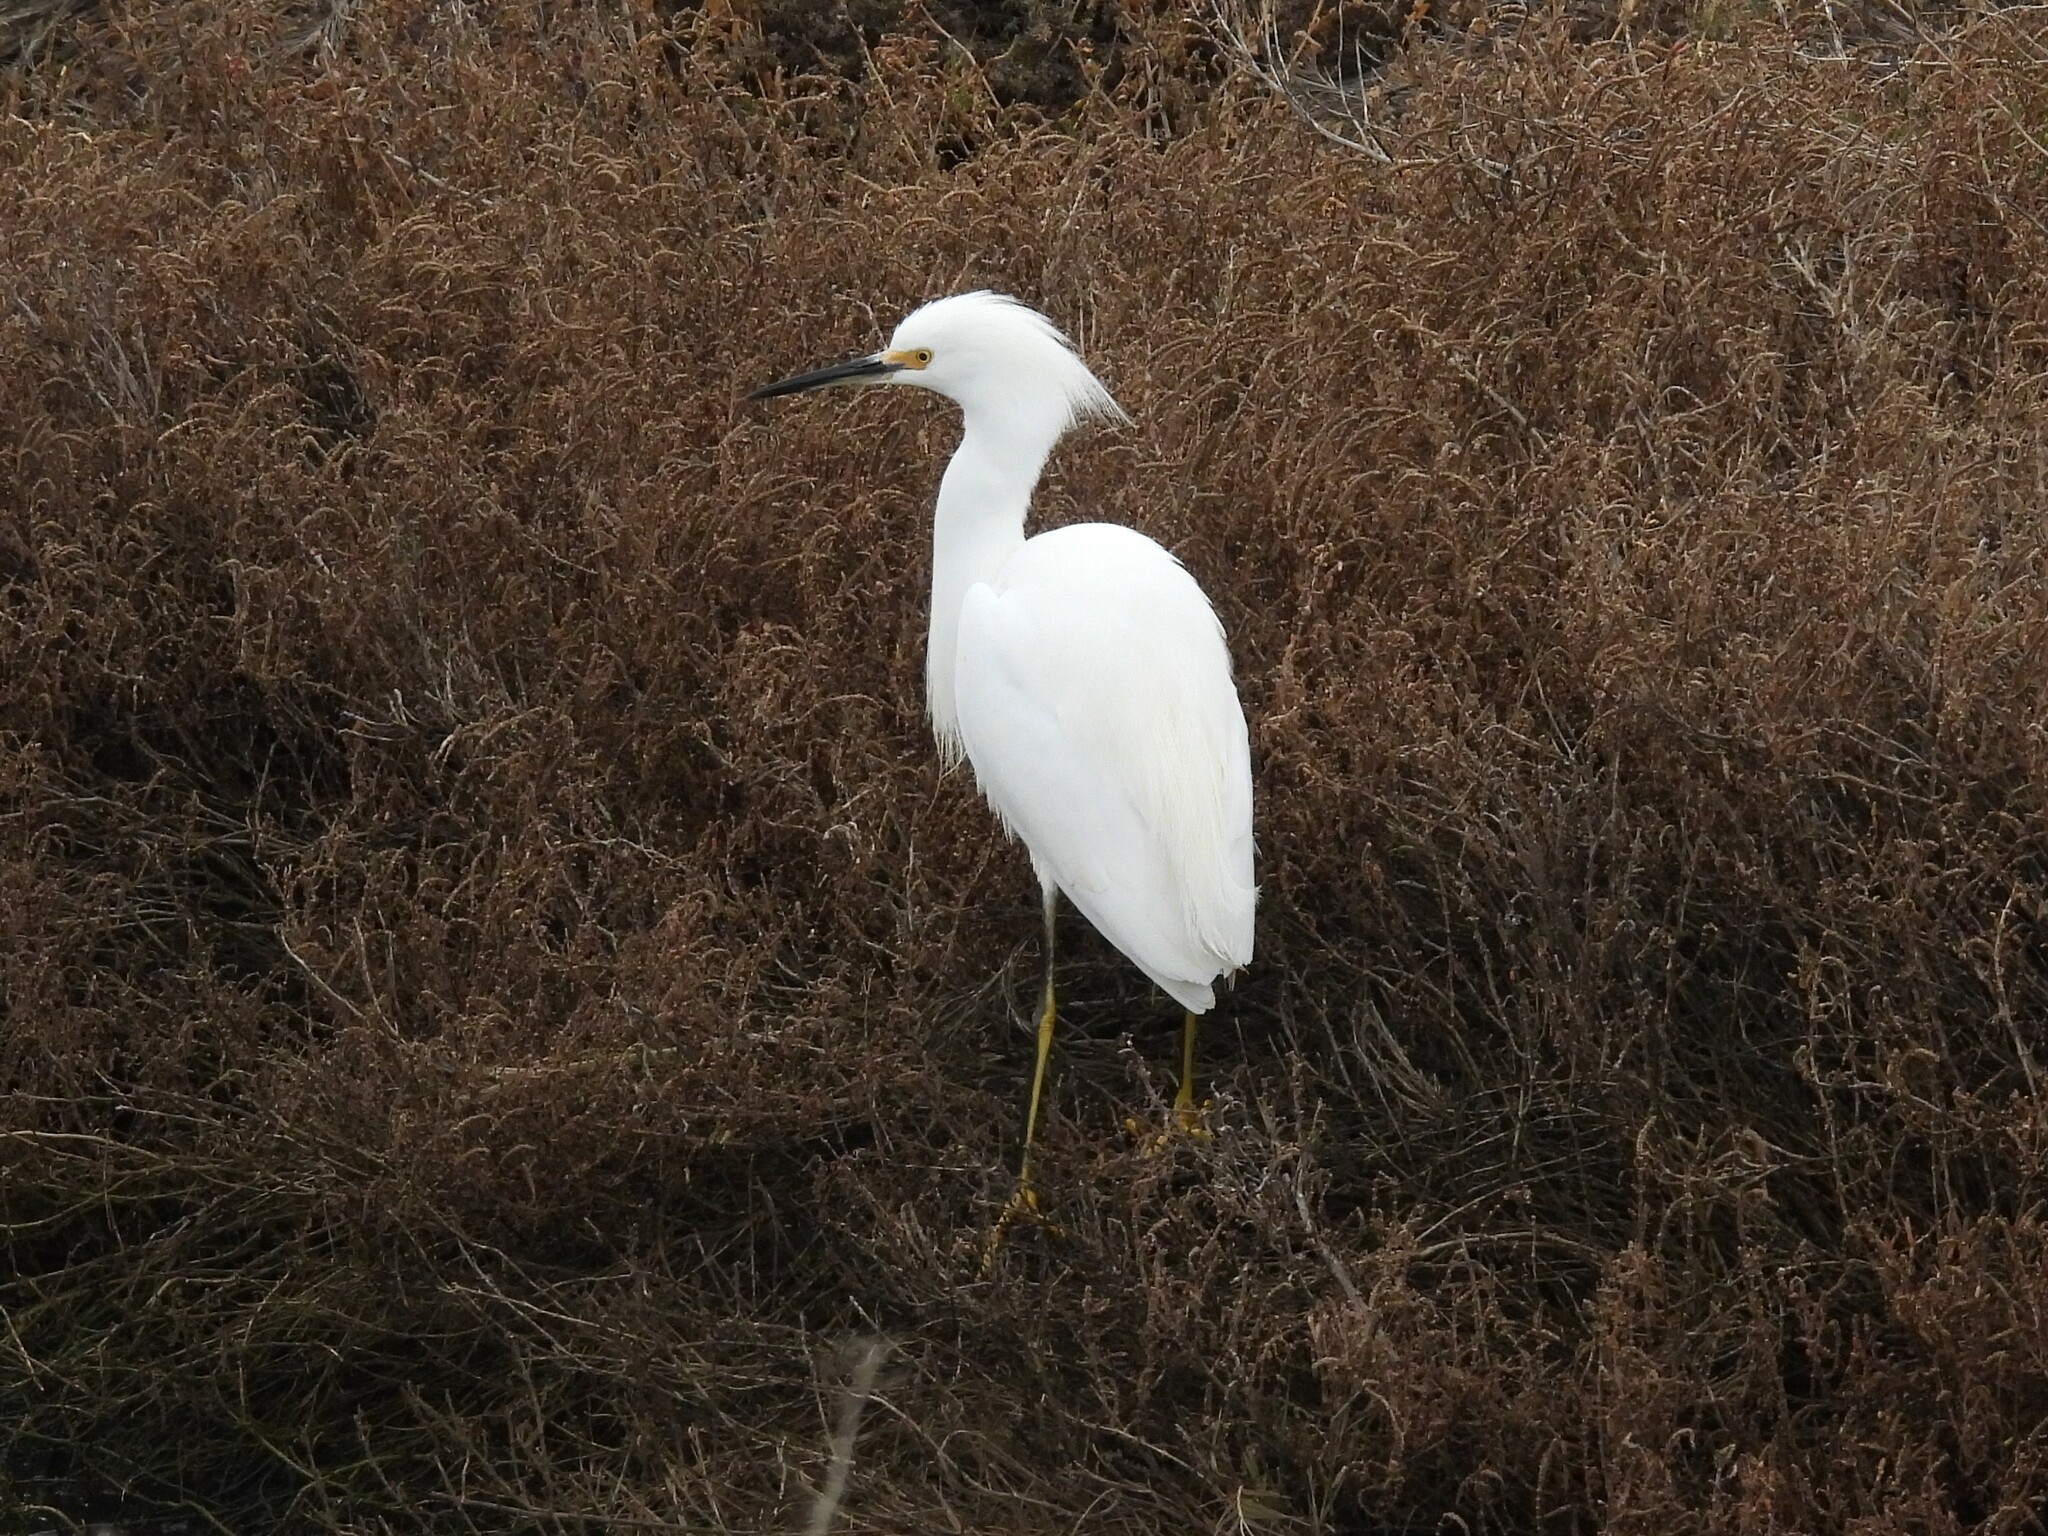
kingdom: Animalia
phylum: Chordata
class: Aves
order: Pelecaniformes
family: Ardeidae
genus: Egretta
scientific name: Egretta thula
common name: Snowy egret
